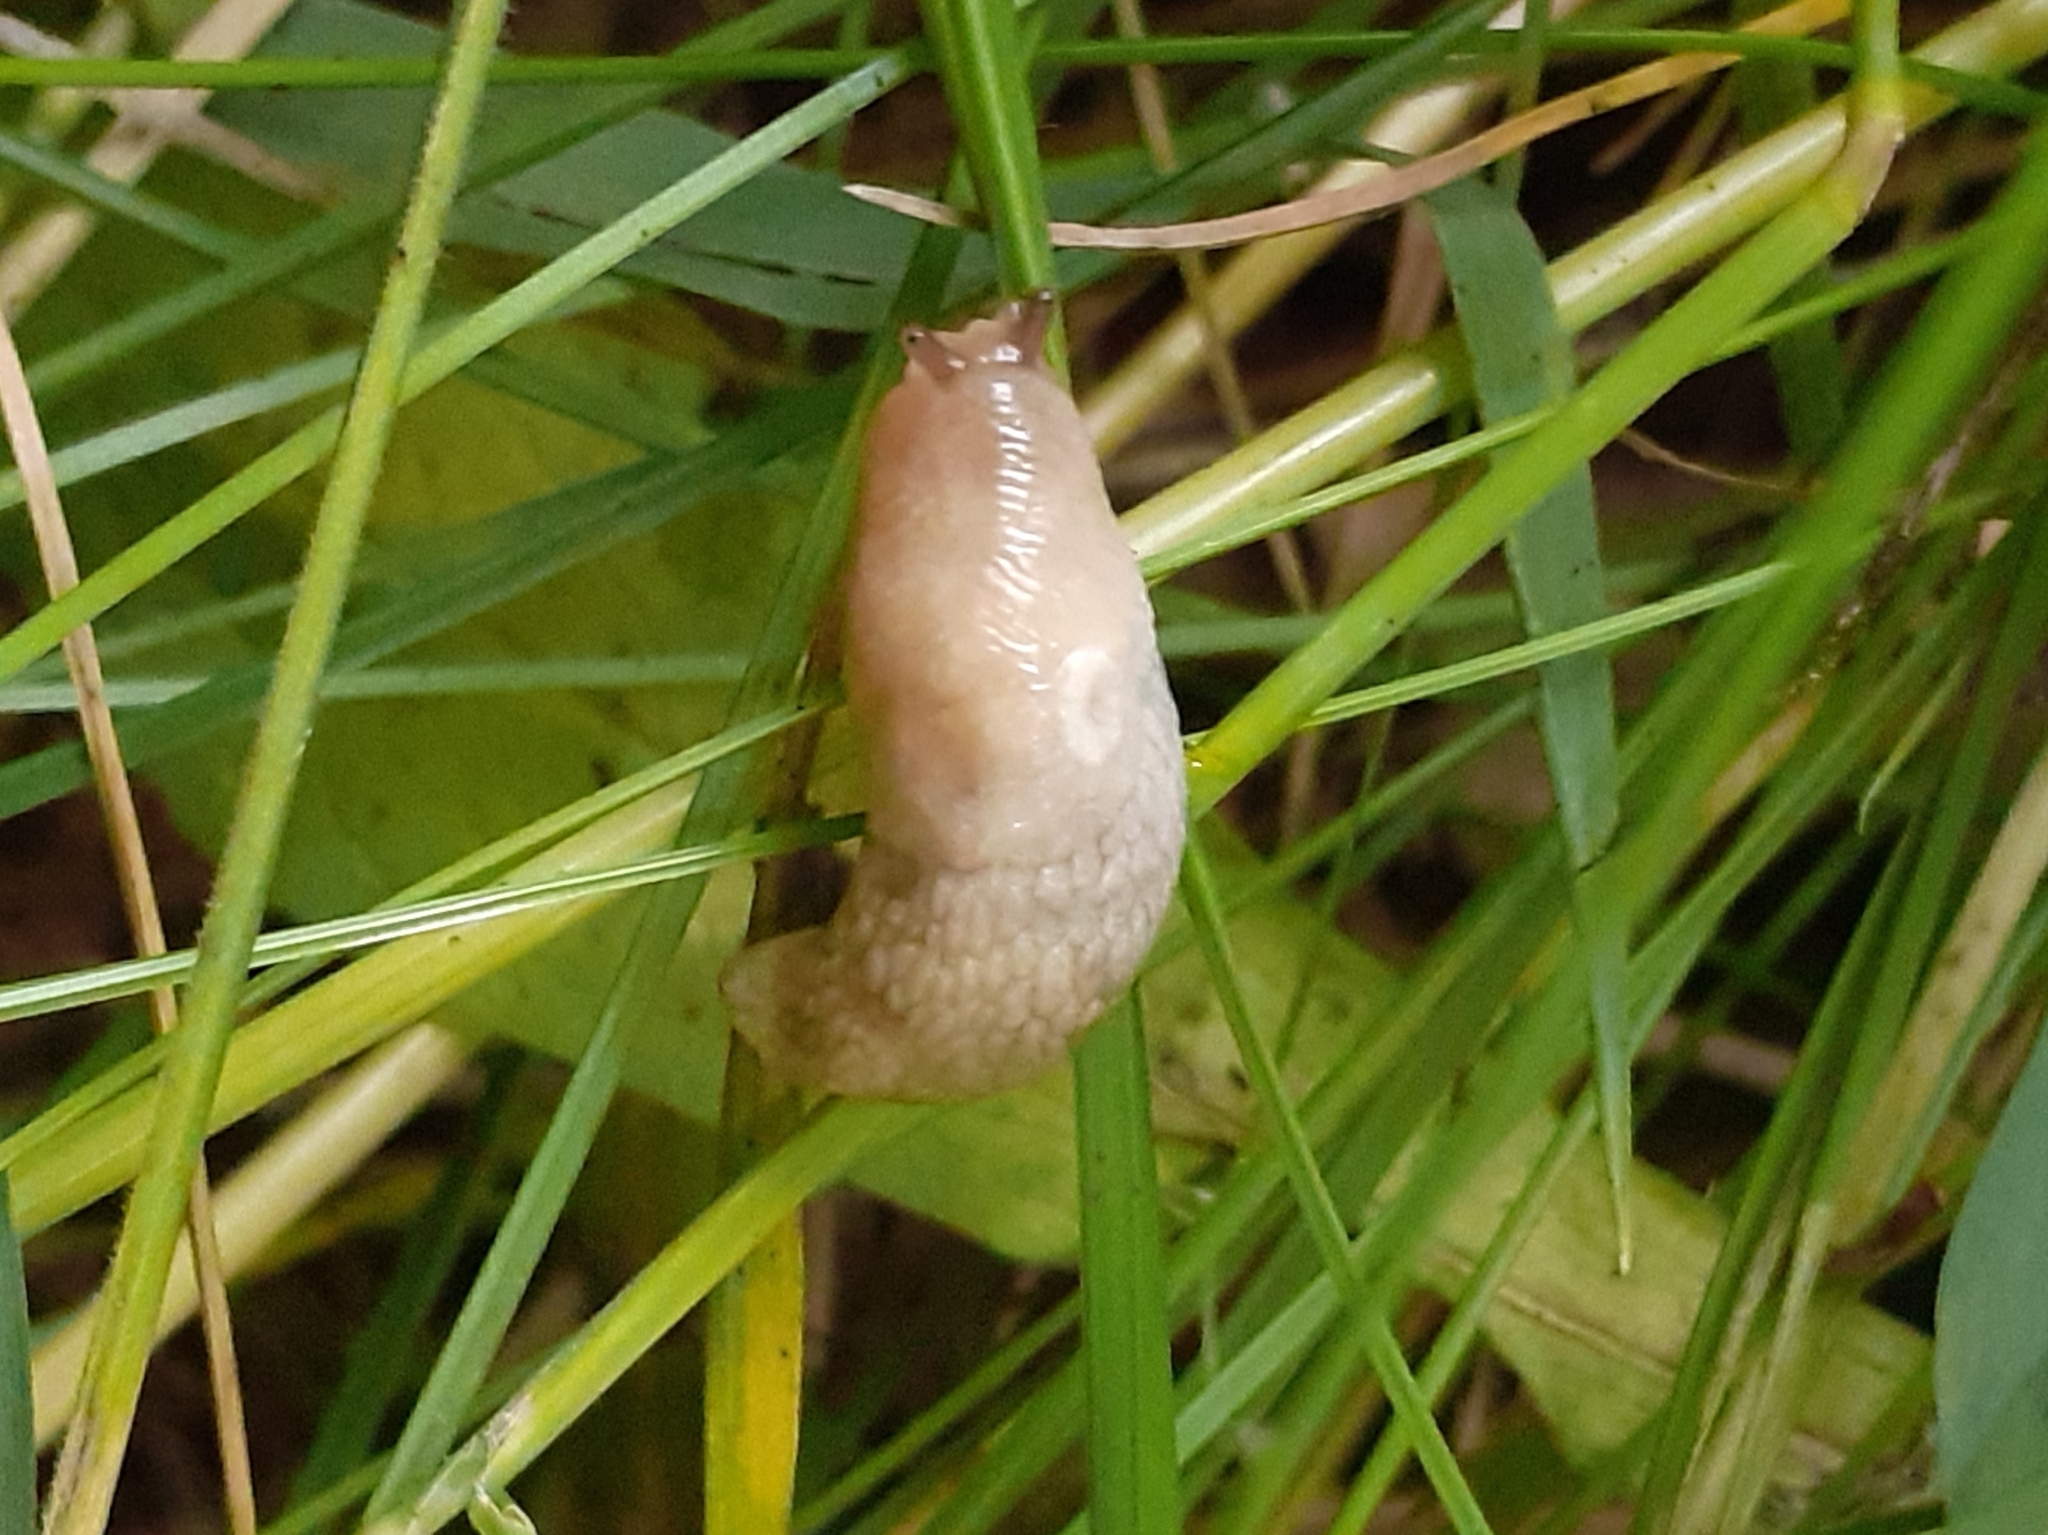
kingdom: Animalia
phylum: Mollusca
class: Gastropoda
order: Stylommatophora
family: Agriolimacidae
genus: Deroceras
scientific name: Deroceras reticulatum
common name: Gray field slug
